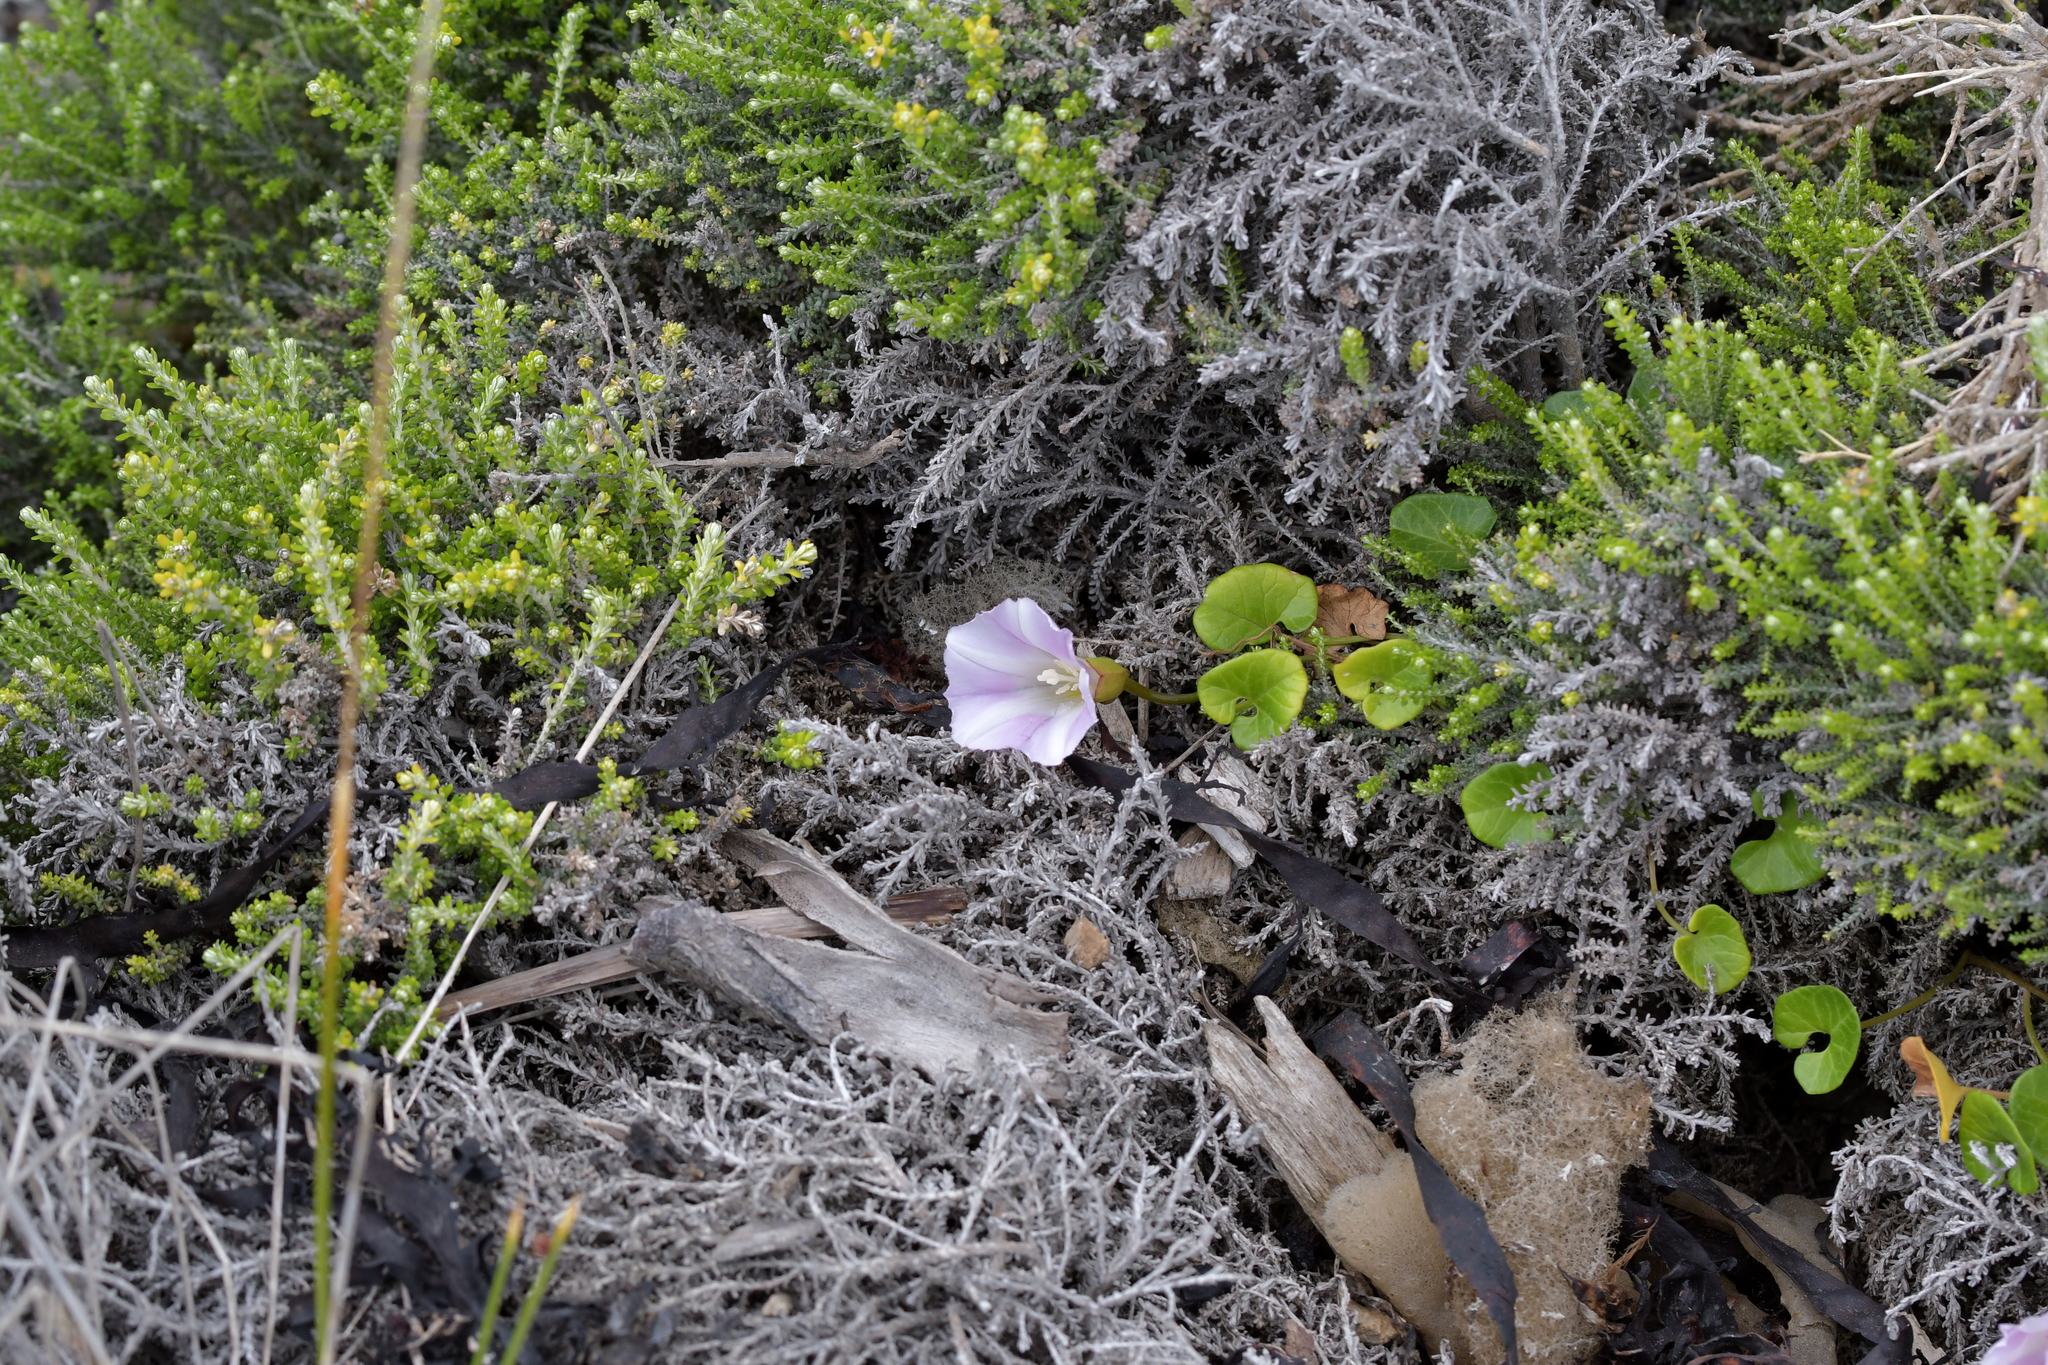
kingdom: Plantae
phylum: Tracheophyta
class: Magnoliopsida
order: Solanales
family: Convolvulaceae
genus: Calystegia
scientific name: Calystegia soldanella
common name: Sea bindweed
